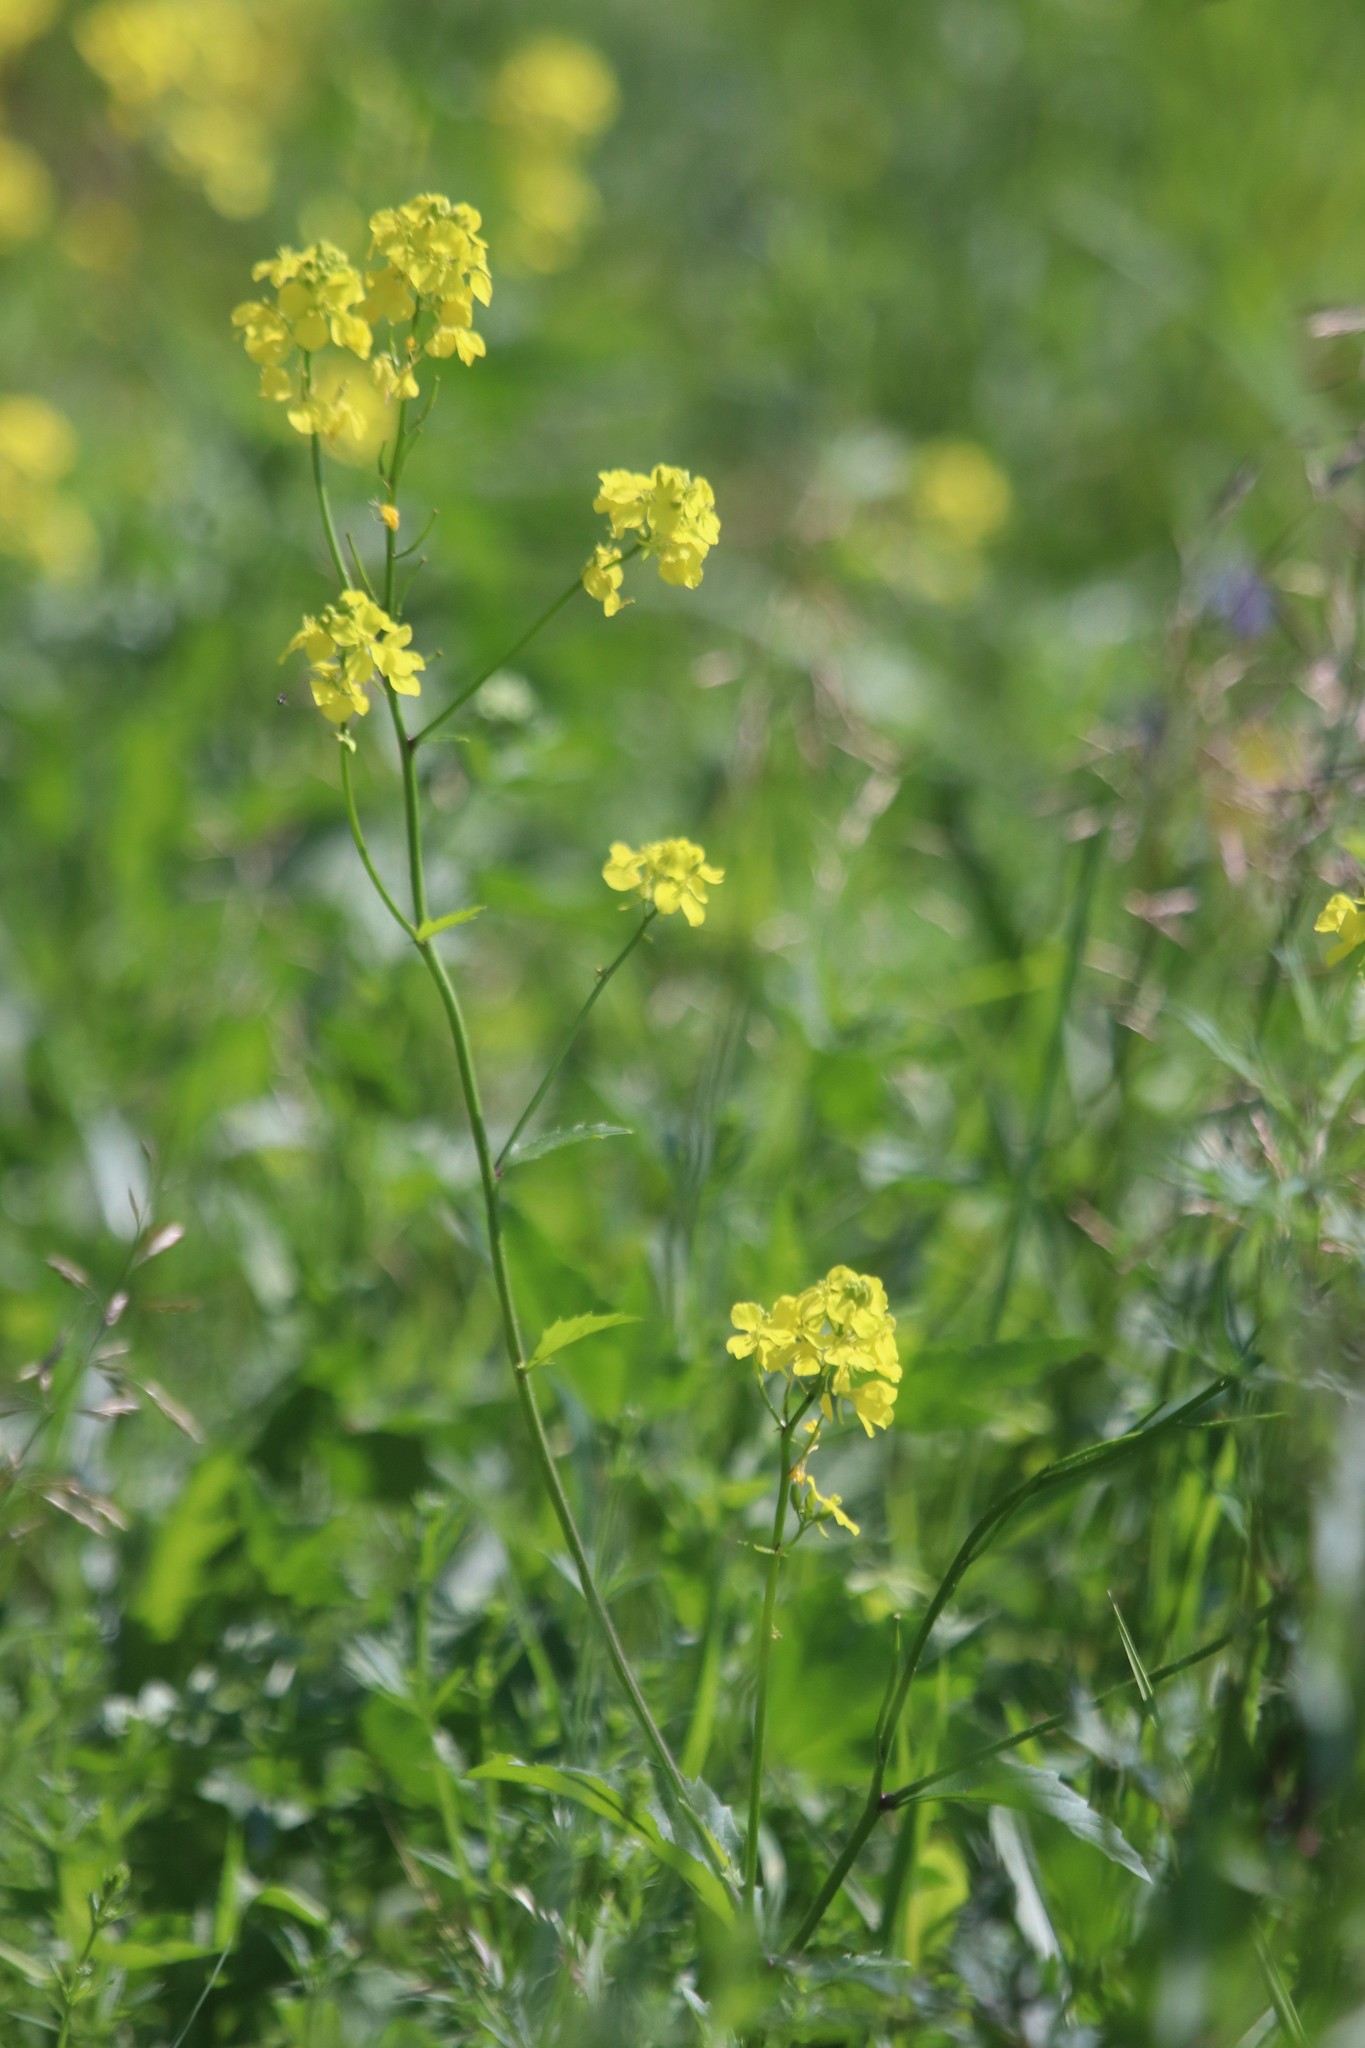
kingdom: Plantae
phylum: Tracheophyta
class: Magnoliopsida
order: Brassicales
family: Brassicaceae
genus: Sinapis
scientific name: Sinapis arvensis
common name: Charlock
